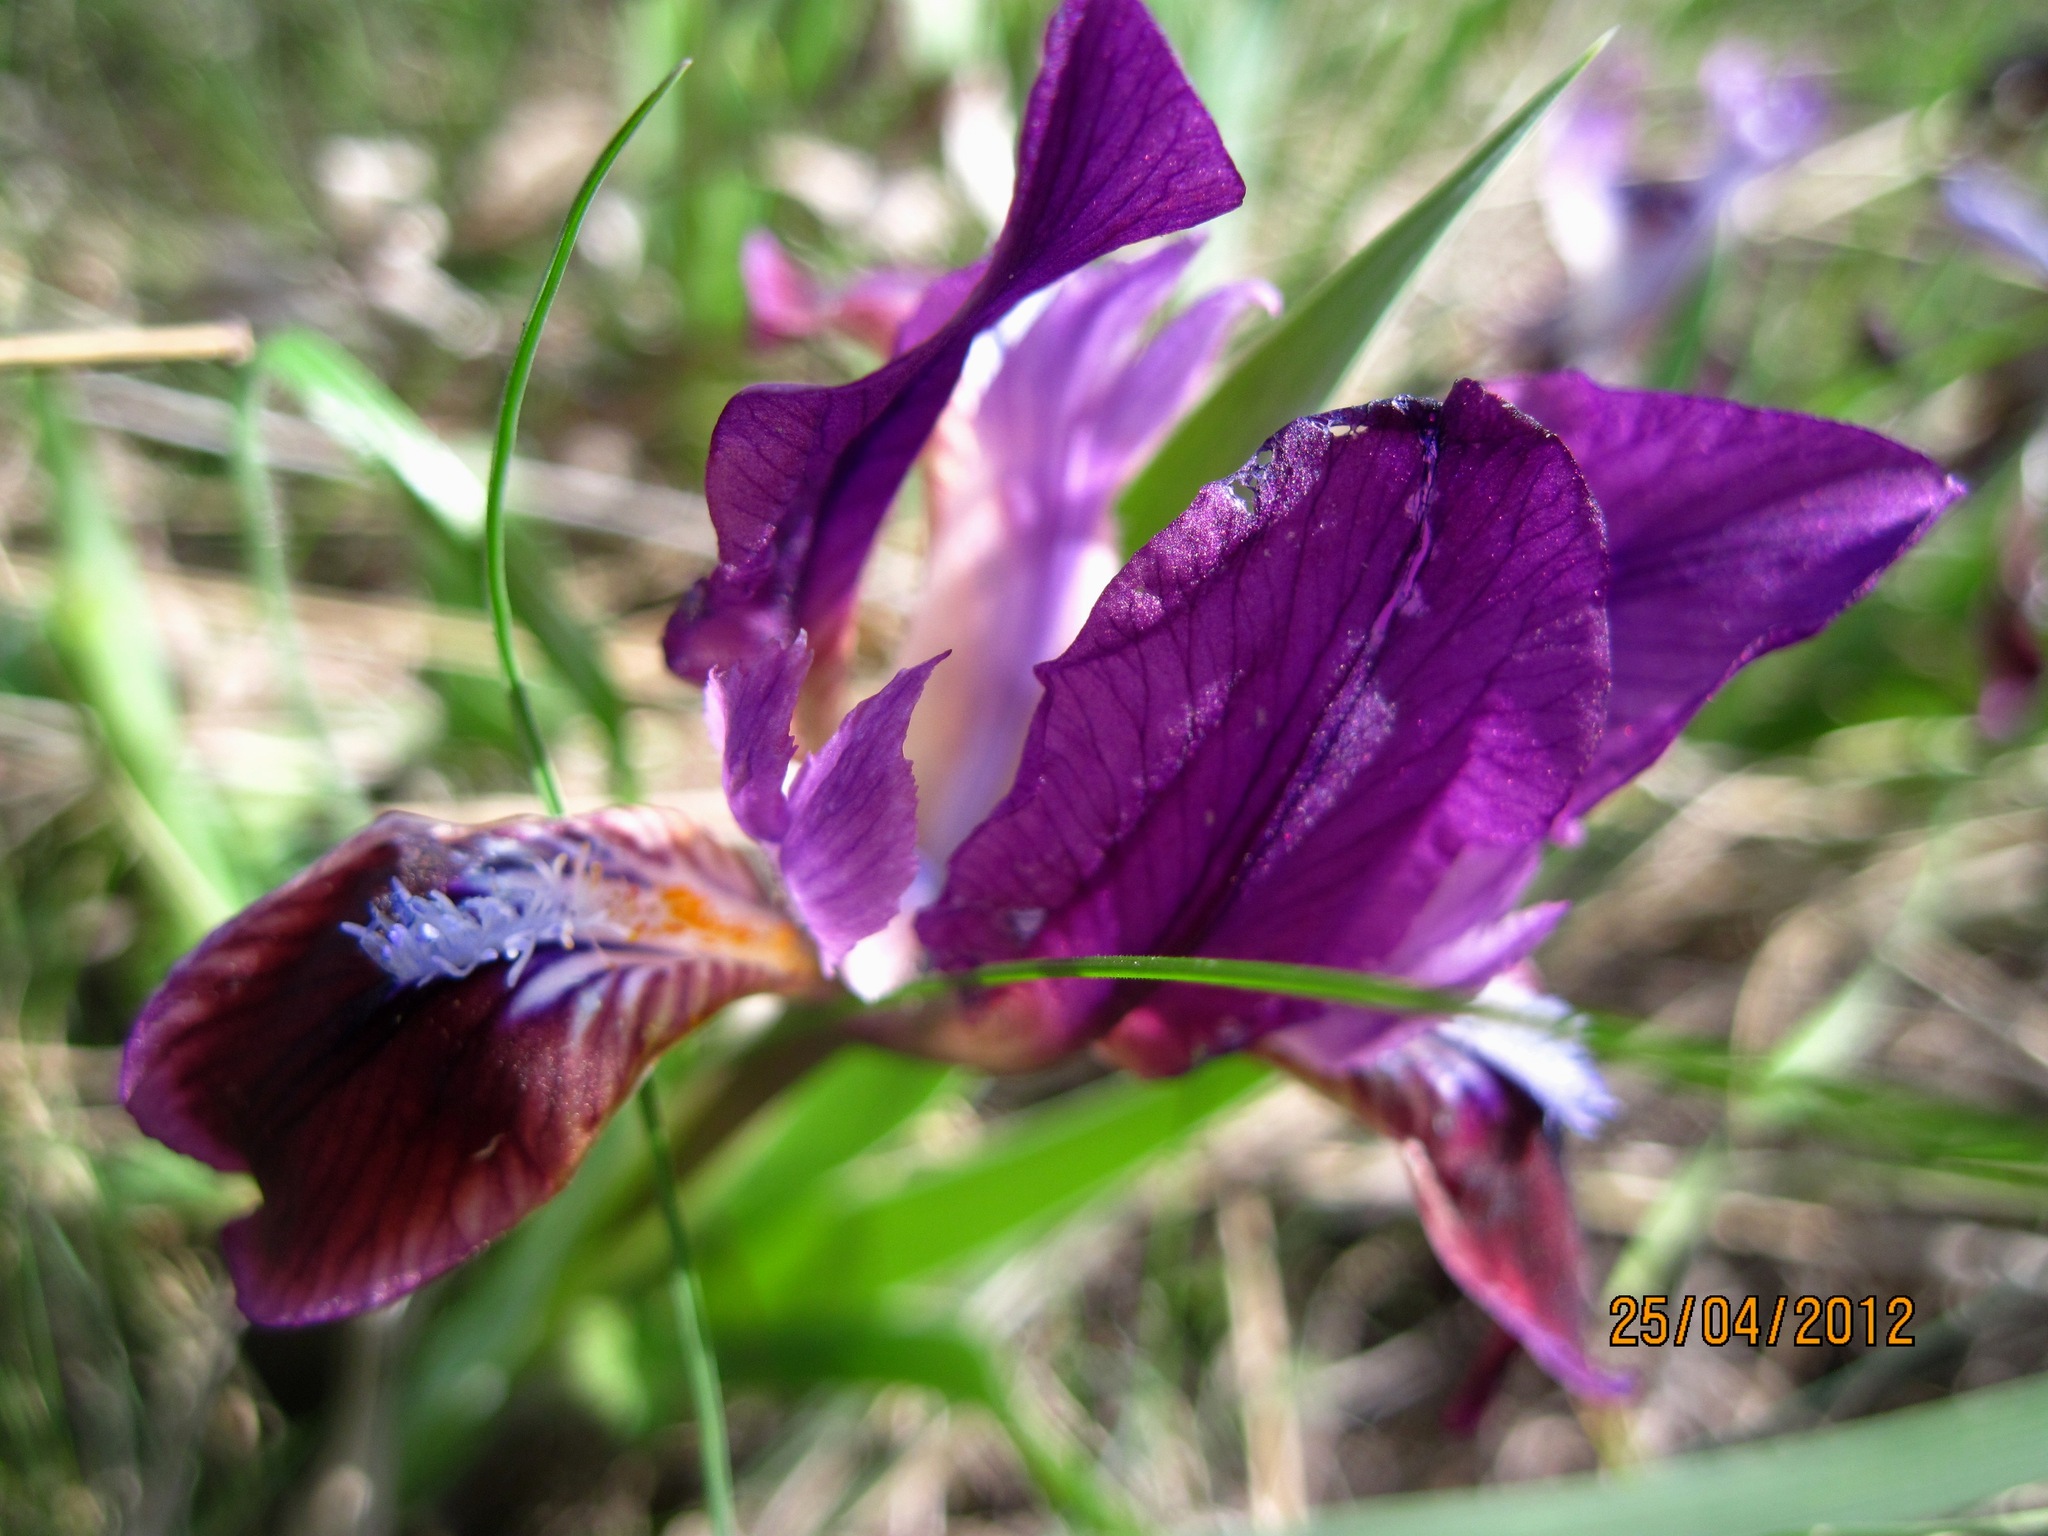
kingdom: Plantae
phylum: Tracheophyta
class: Liliopsida
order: Asparagales
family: Iridaceae
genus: Iris
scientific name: Iris pumila
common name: Dwarf iris
